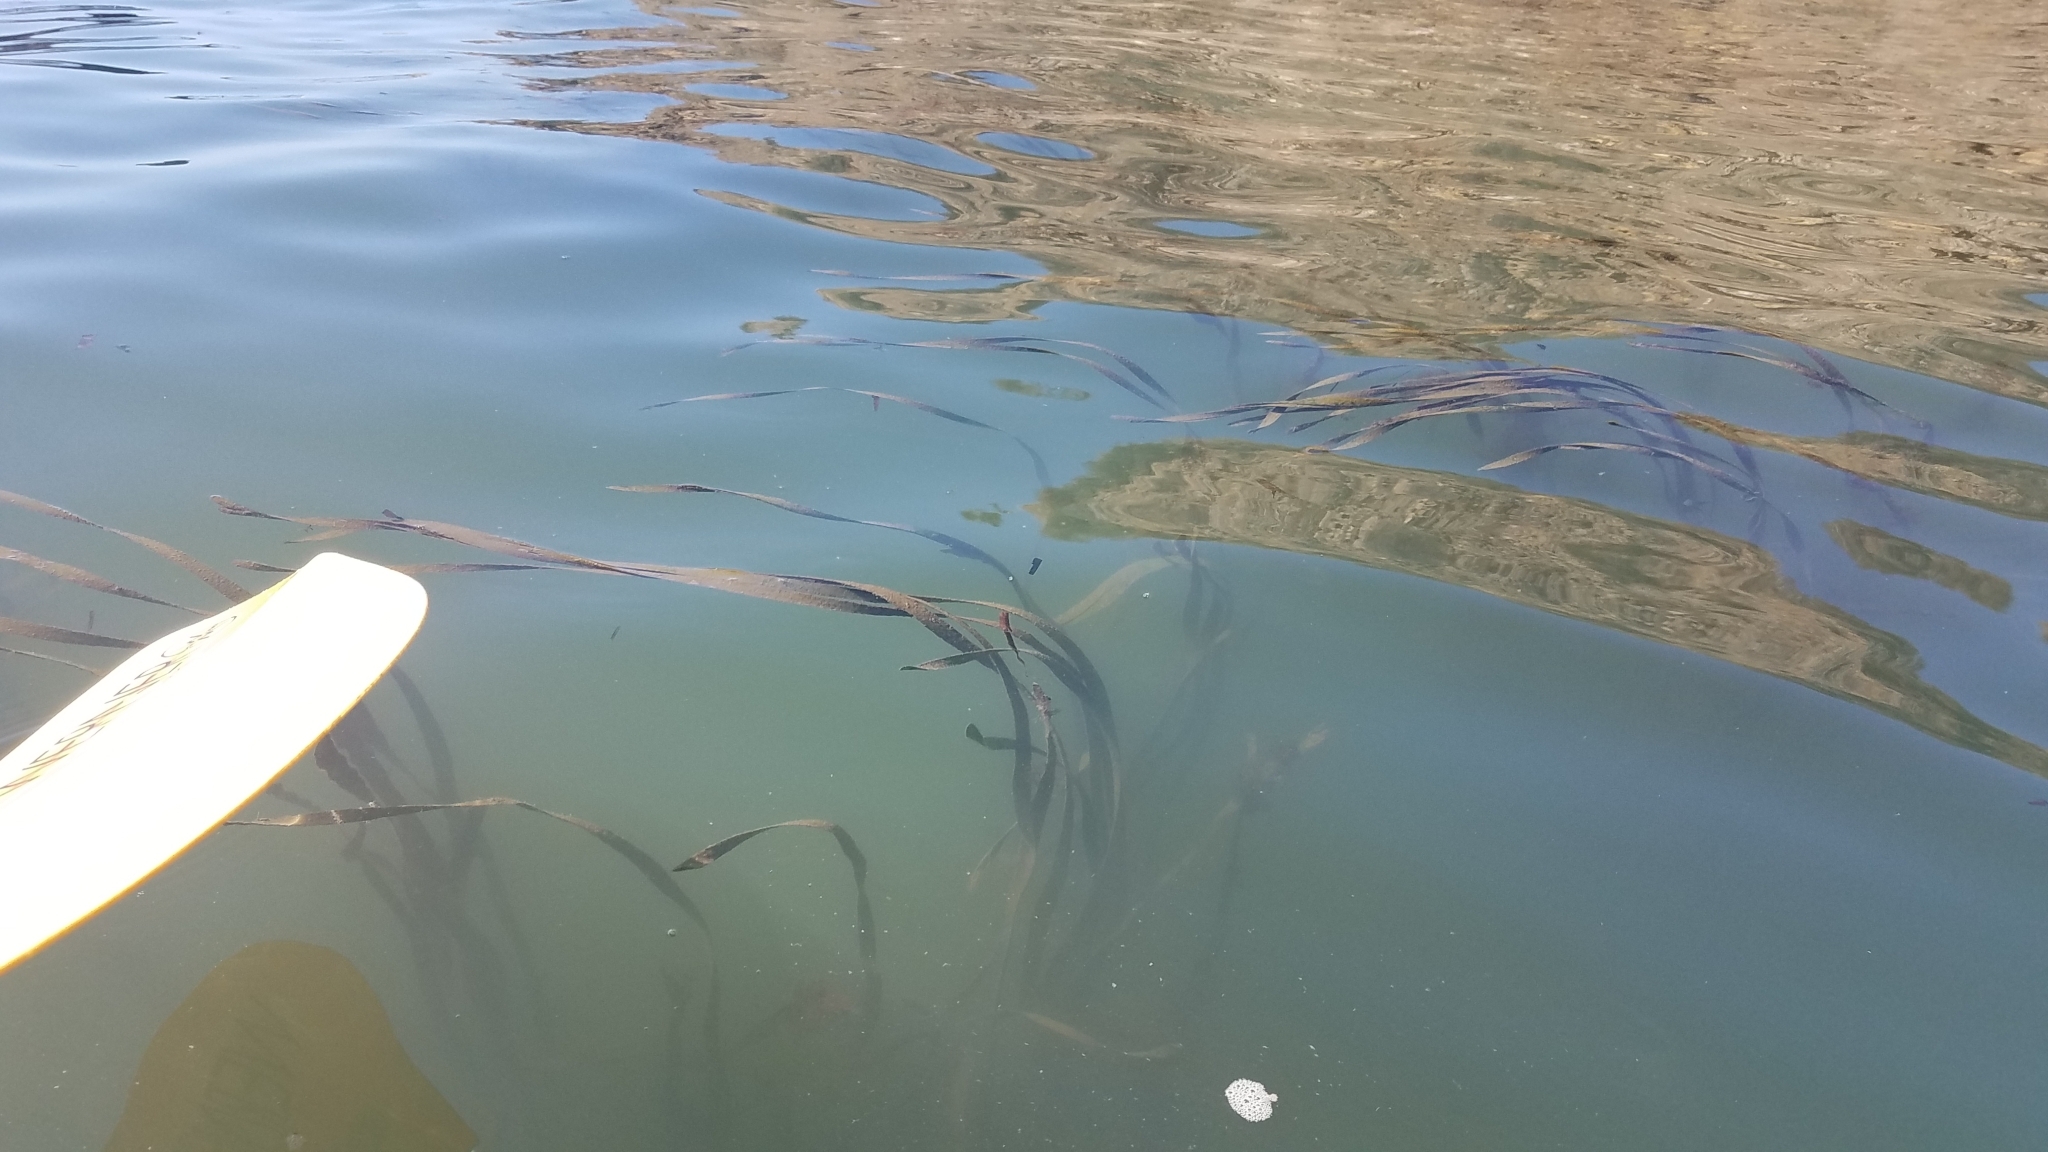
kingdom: Plantae
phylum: Tracheophyta
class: Liliopsida
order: Alismatales
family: Zosteraceae
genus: Zostera
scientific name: Zostera marina
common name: Eelgrass
